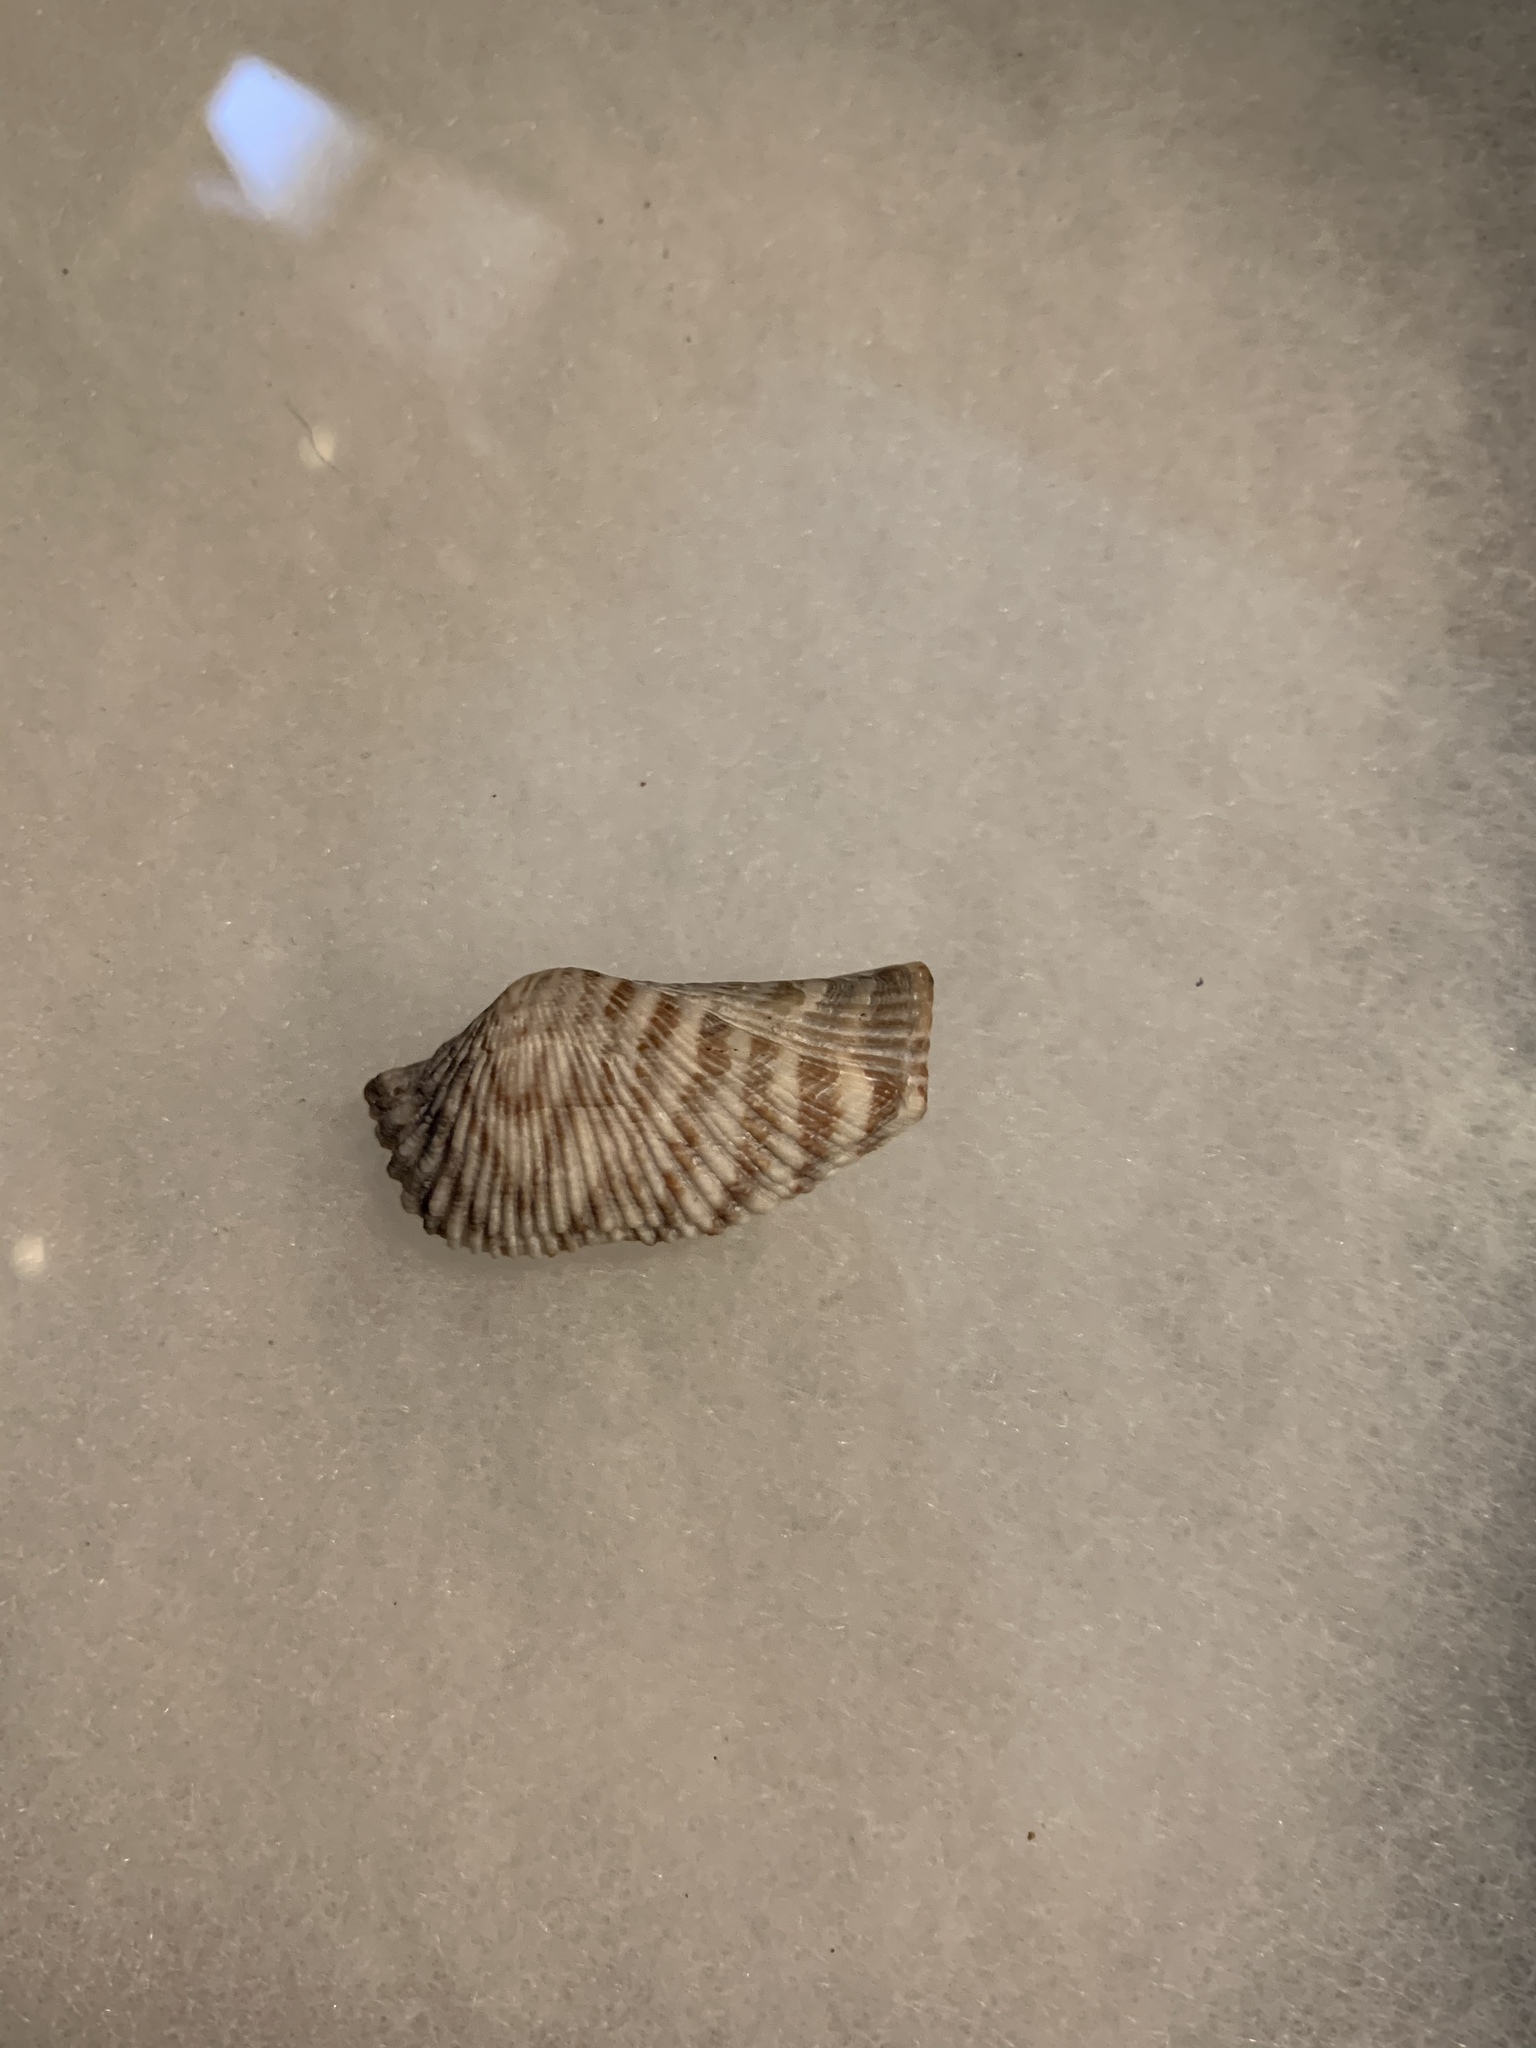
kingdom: Animalia
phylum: Mollusca
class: Bivalvia
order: Arcida
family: Arcidae
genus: Arca
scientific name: Arca zebra
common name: Atlantic turkey wing
